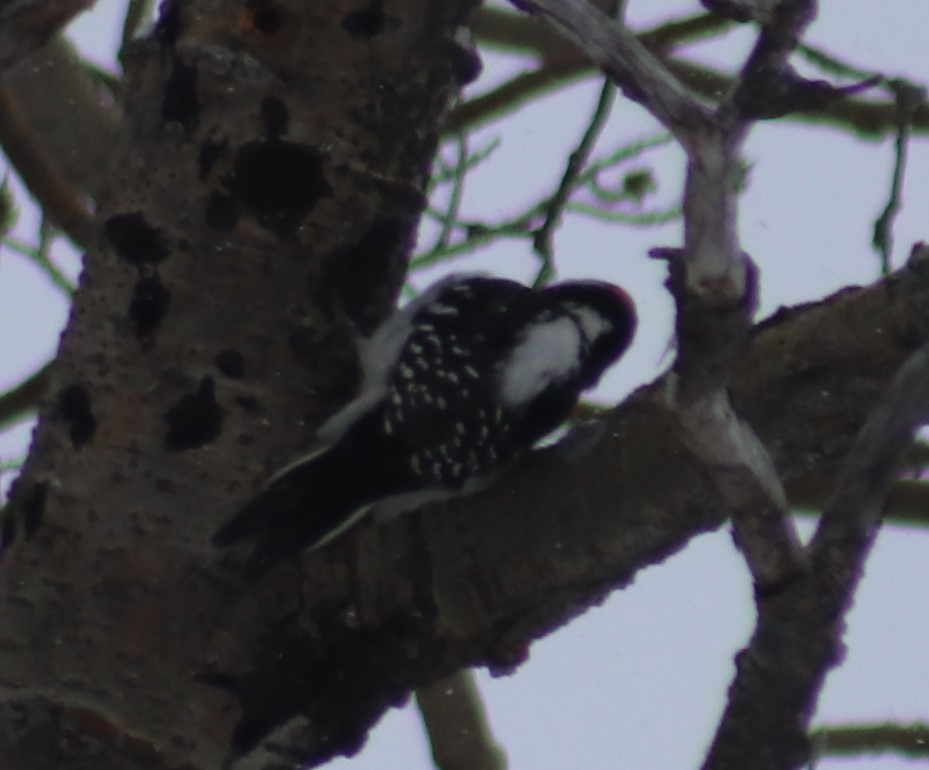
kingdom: Animalia
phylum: Chordata
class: Aves
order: Piciformes
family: Picidae
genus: Leuconotopicus
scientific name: Leuconotopicus villosus
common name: Hairy woodpecker
